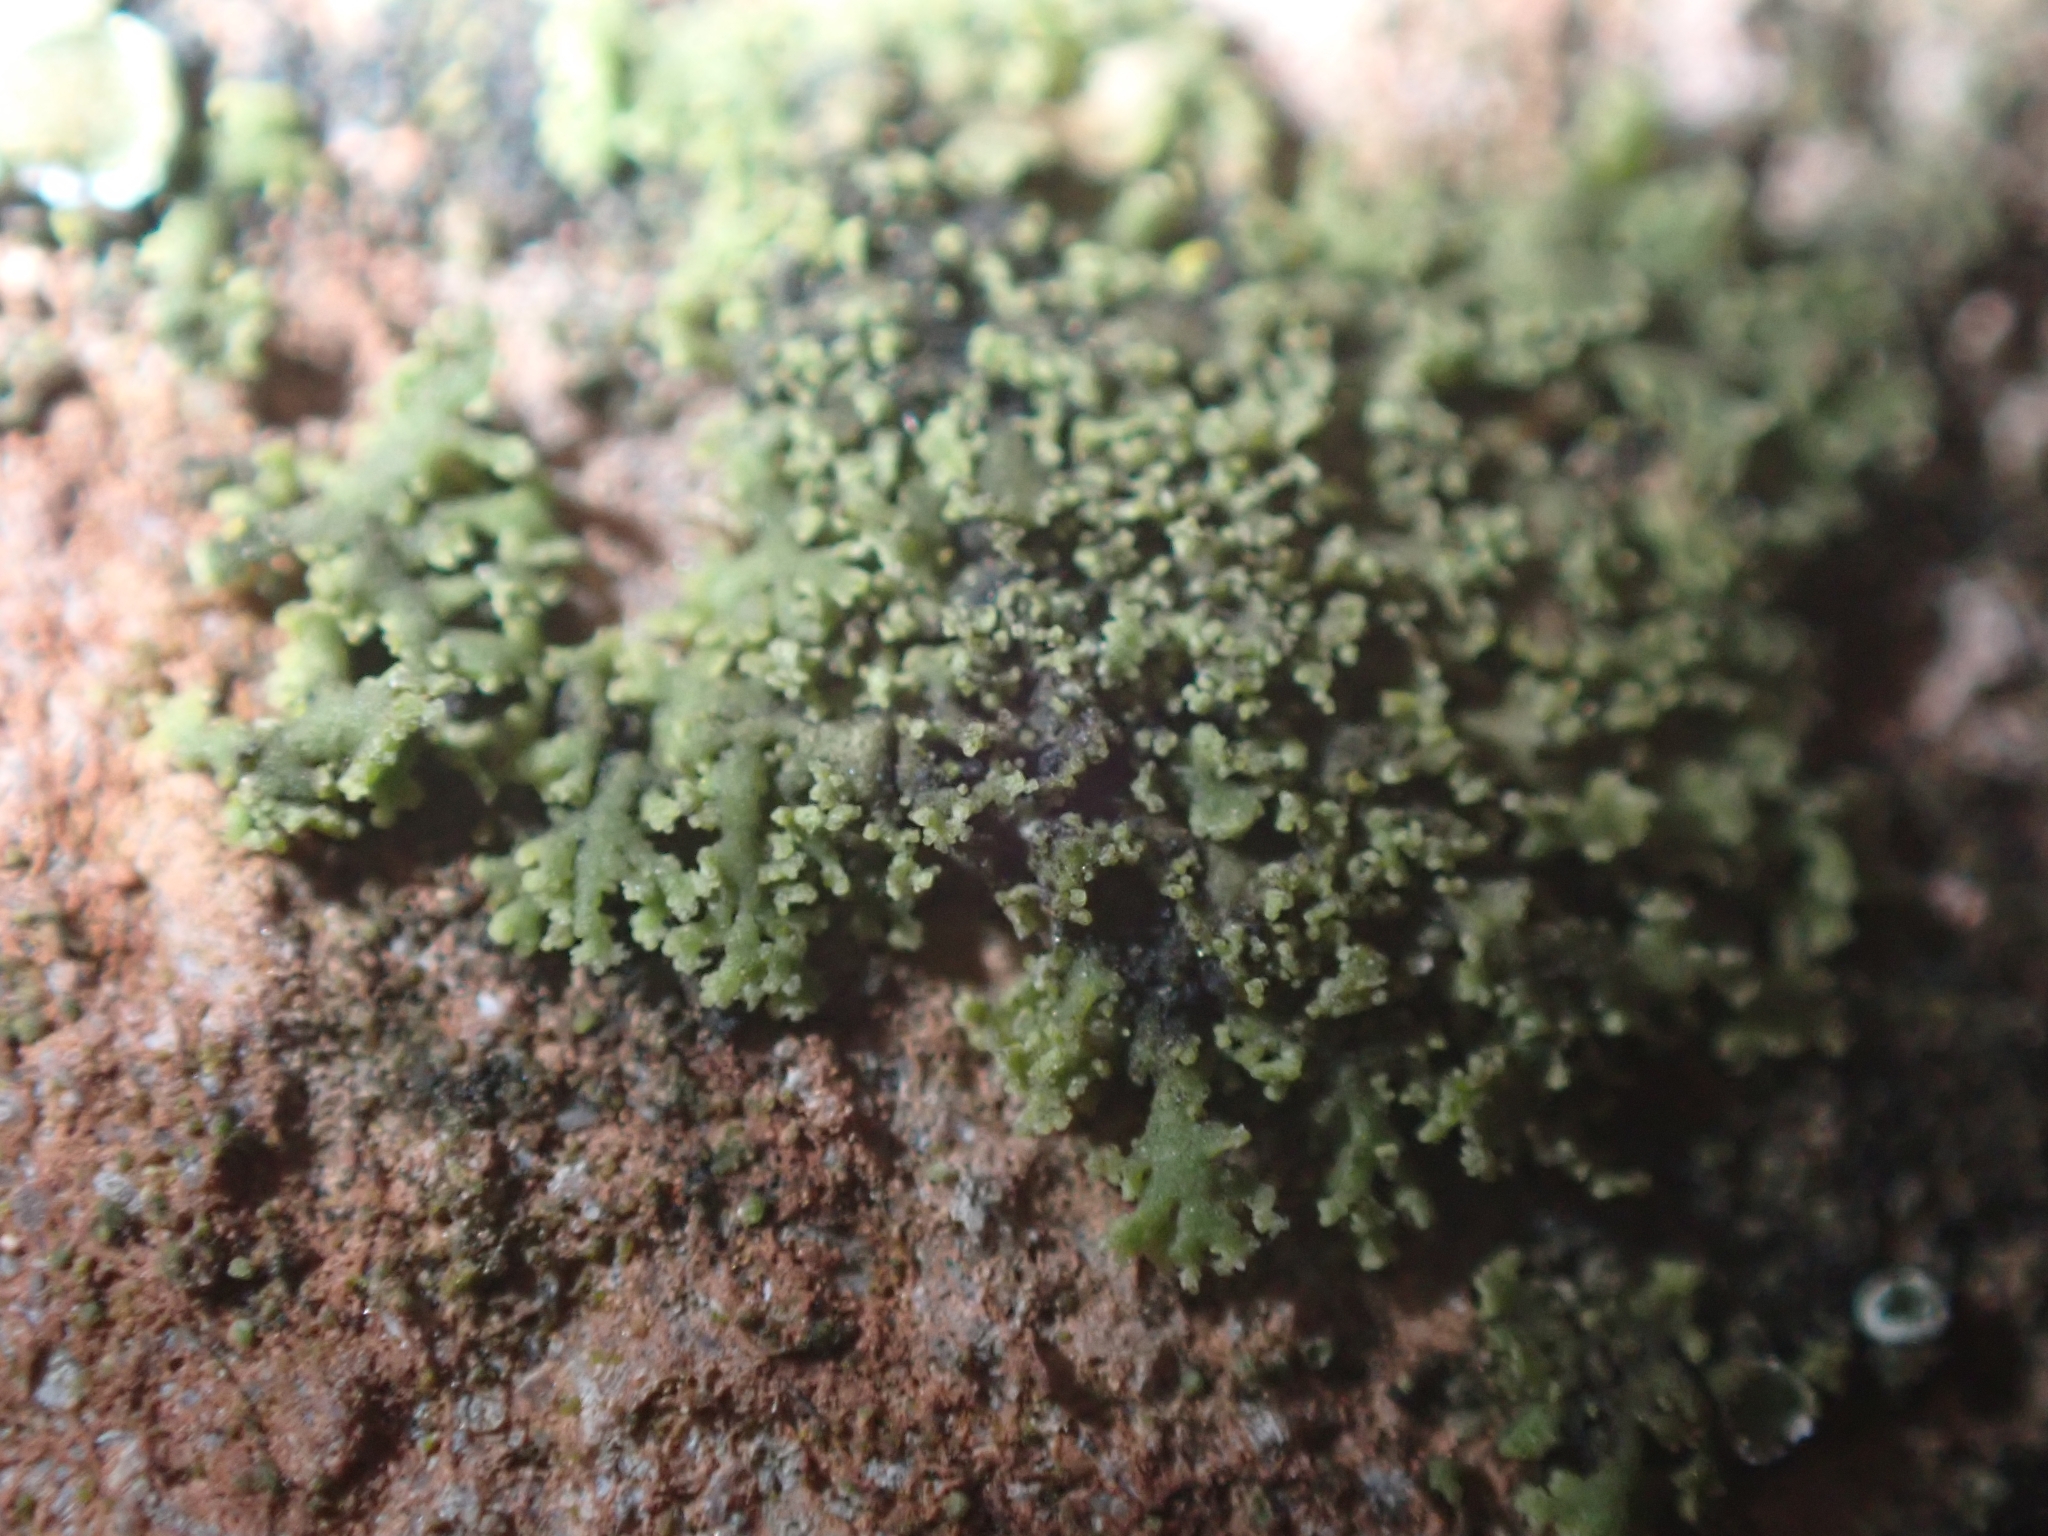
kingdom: Fungi
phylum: Ascomycota
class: Lecanoromycetes
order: Caliciales
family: Physciaceae
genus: Physciella
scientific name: Physciella nigricans
